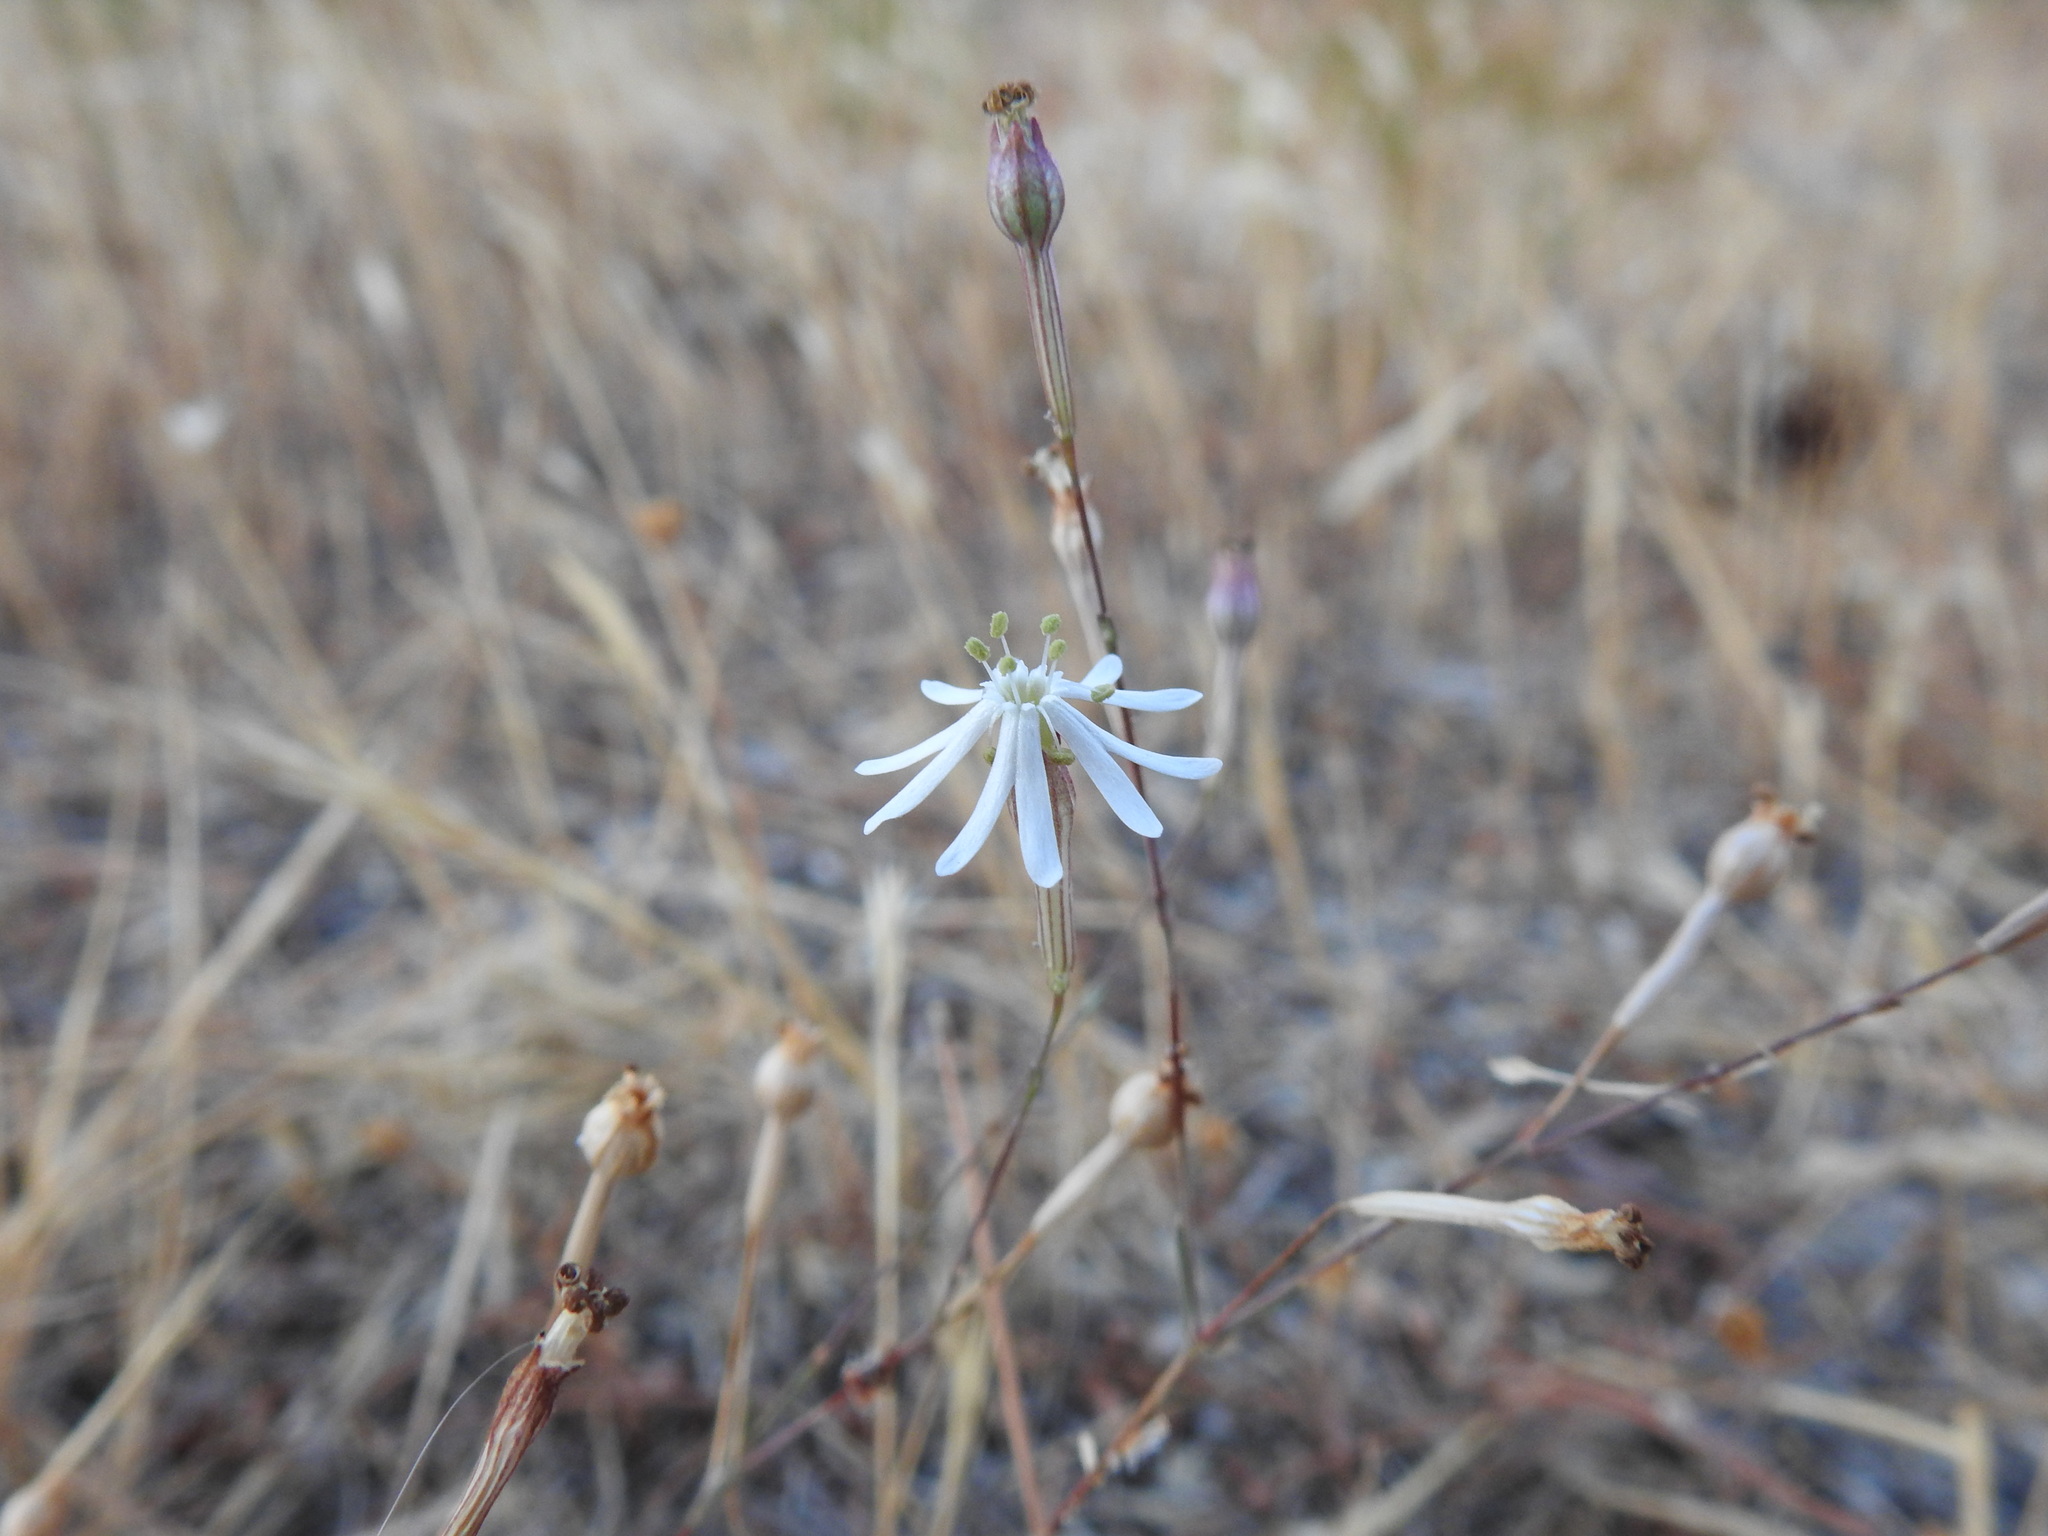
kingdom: Plantae
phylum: Tracheophyta
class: Magnoliopsida
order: Caryophyllales
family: Caryophyllaceae
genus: Silene
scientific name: Silene portensis
